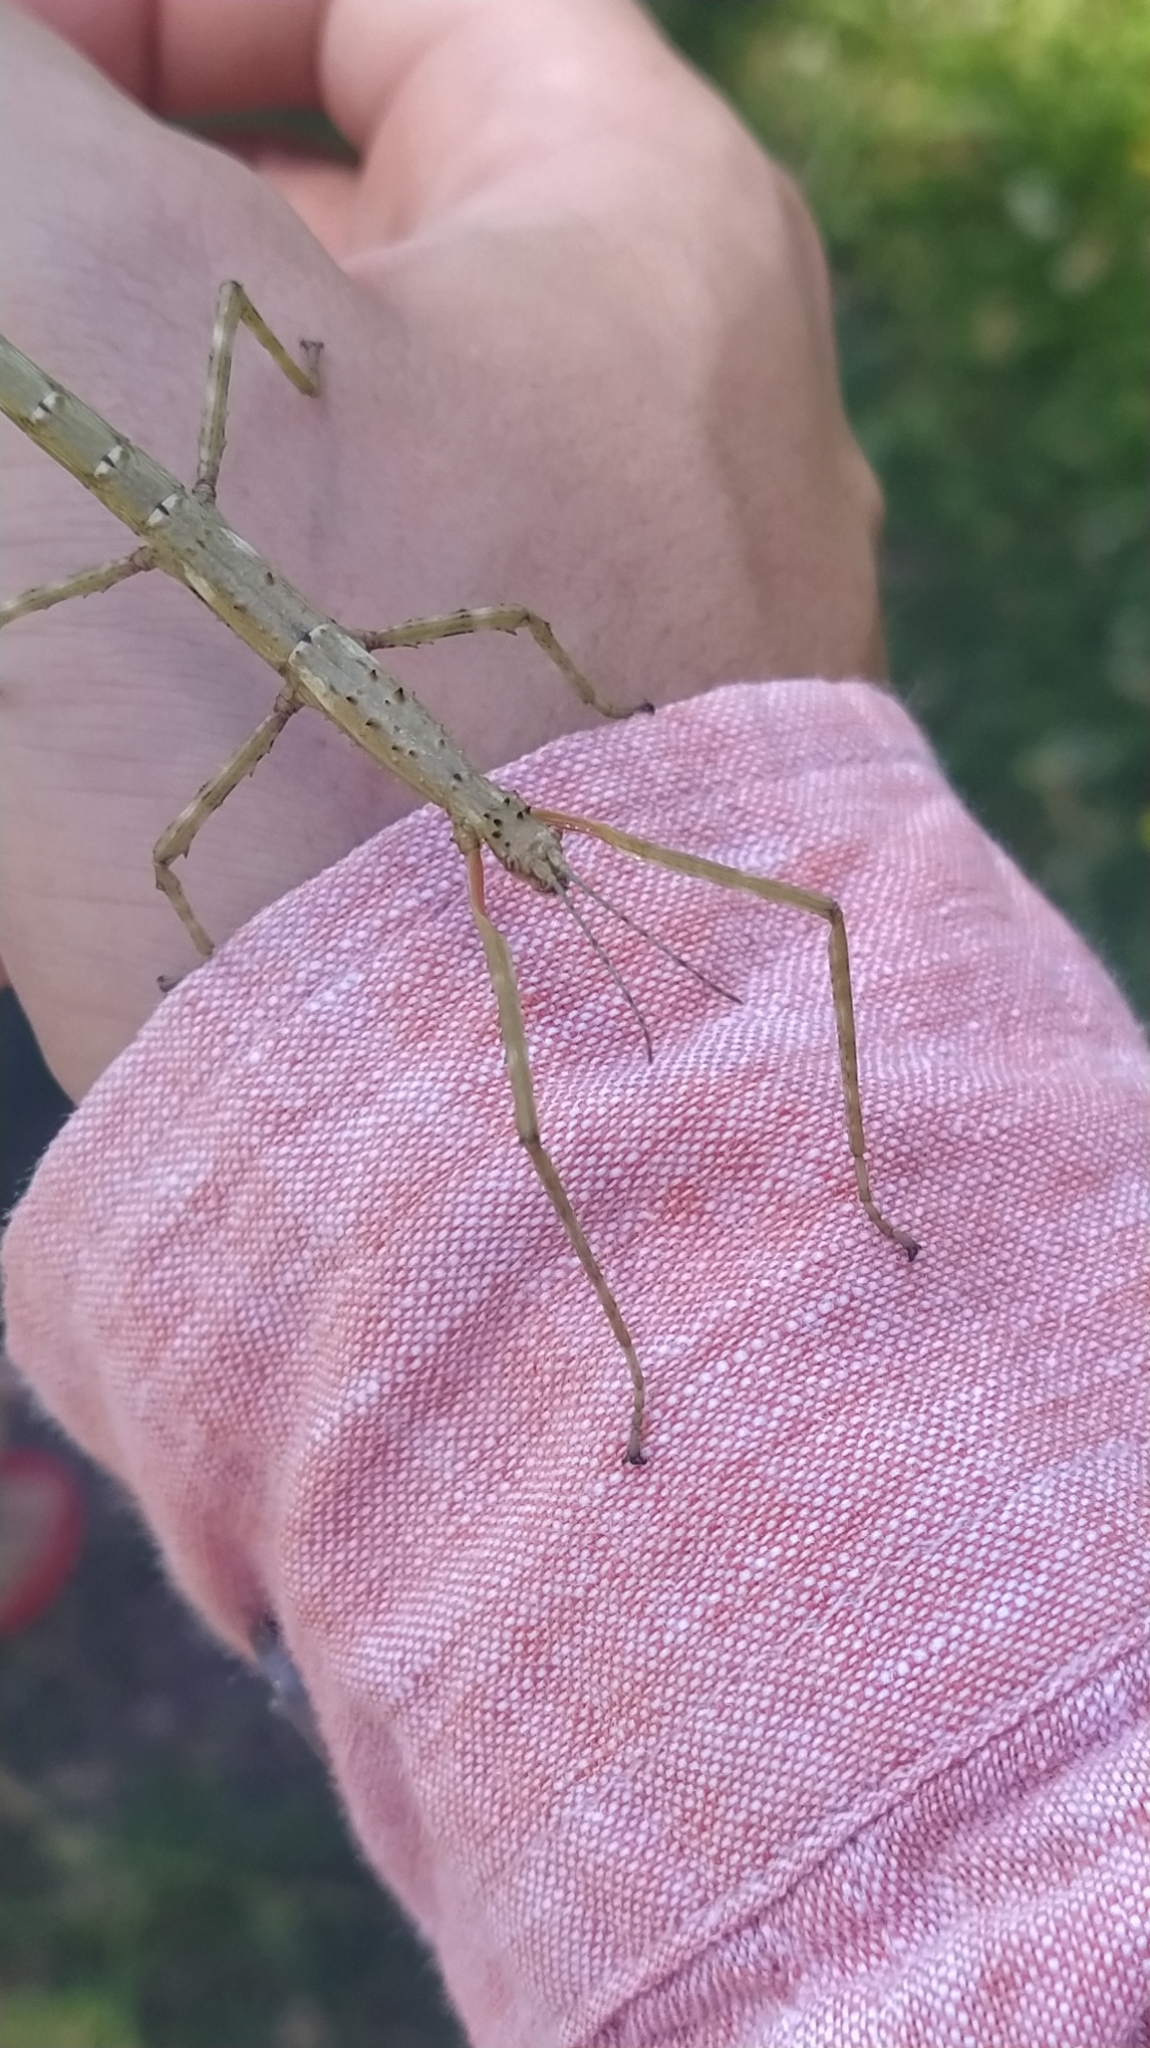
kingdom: Animalia
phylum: Arthropoda
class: Insecta
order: Phasmida
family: Phasmatidae
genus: Acanthoxyla
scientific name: Acanthoxyla prasina
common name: Black-spined stick insect
